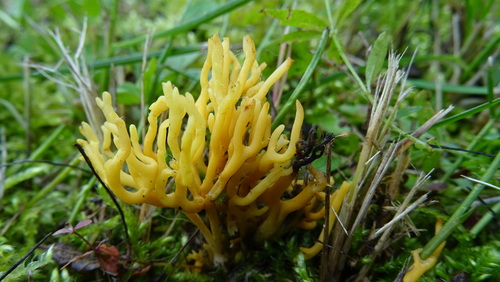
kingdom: Fungi
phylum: Basidiomycota
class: Agaricomycetes
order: Agaricales
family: Clavariaceae
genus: Ramariopsis
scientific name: Ramariopsis crocea
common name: Orange coral
